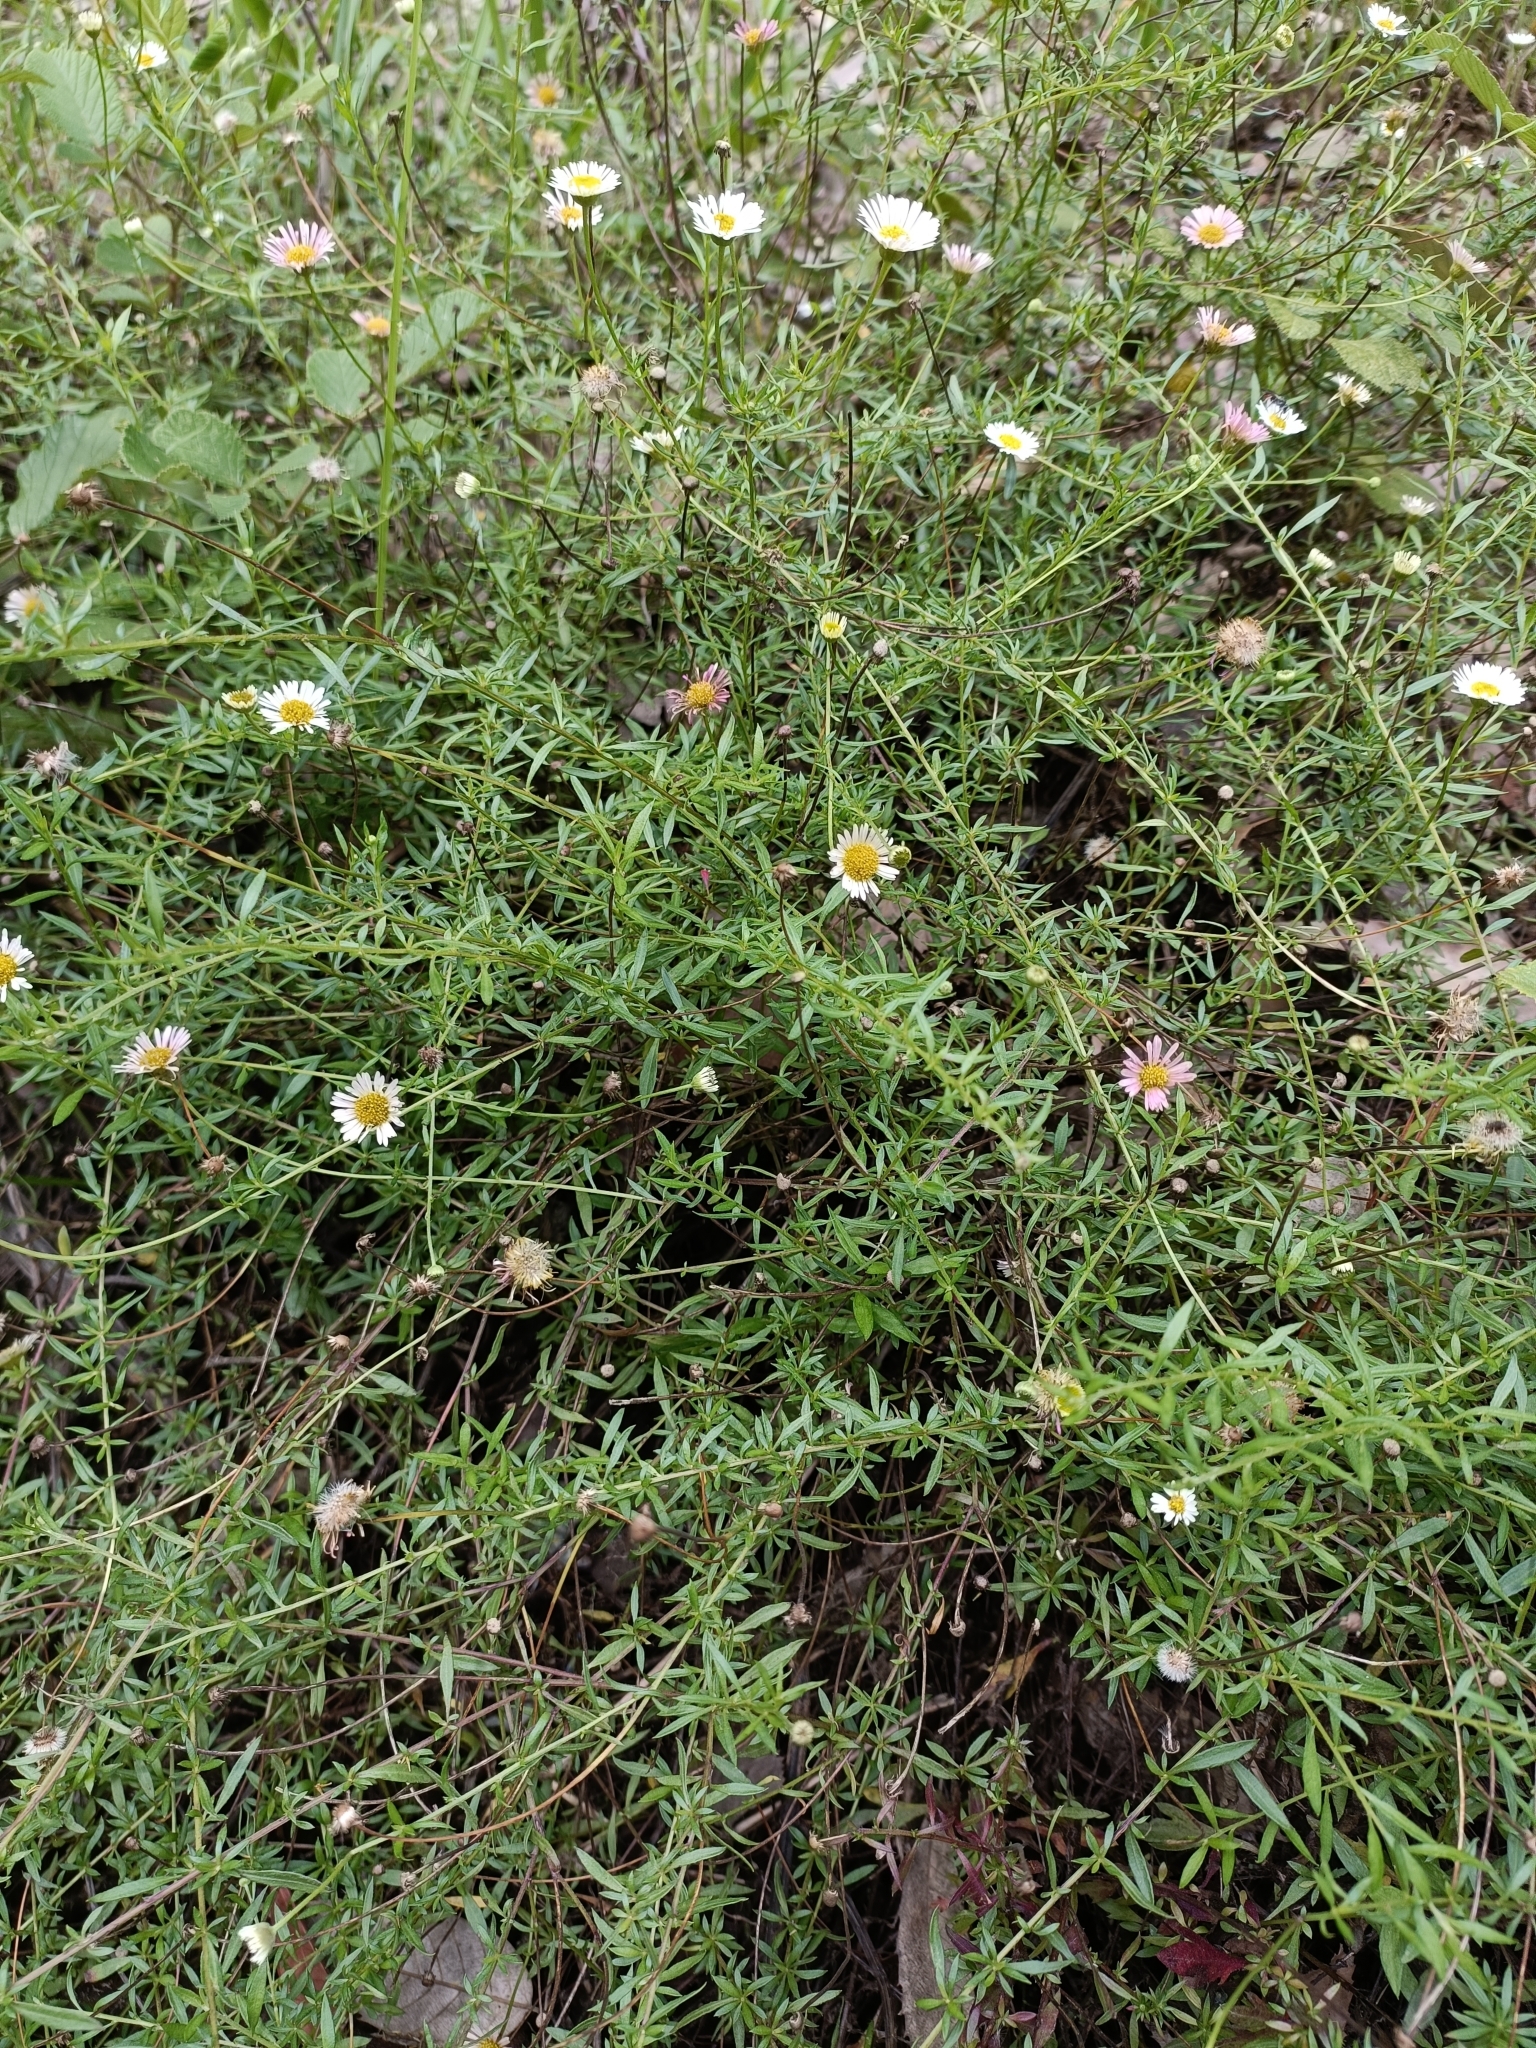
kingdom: Plantae
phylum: Tracheophyta
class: Magnoliopsida
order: Asterales
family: Asteraceae
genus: Erigeron
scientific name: Erigeron karvinskianus
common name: Mexican fleabane
